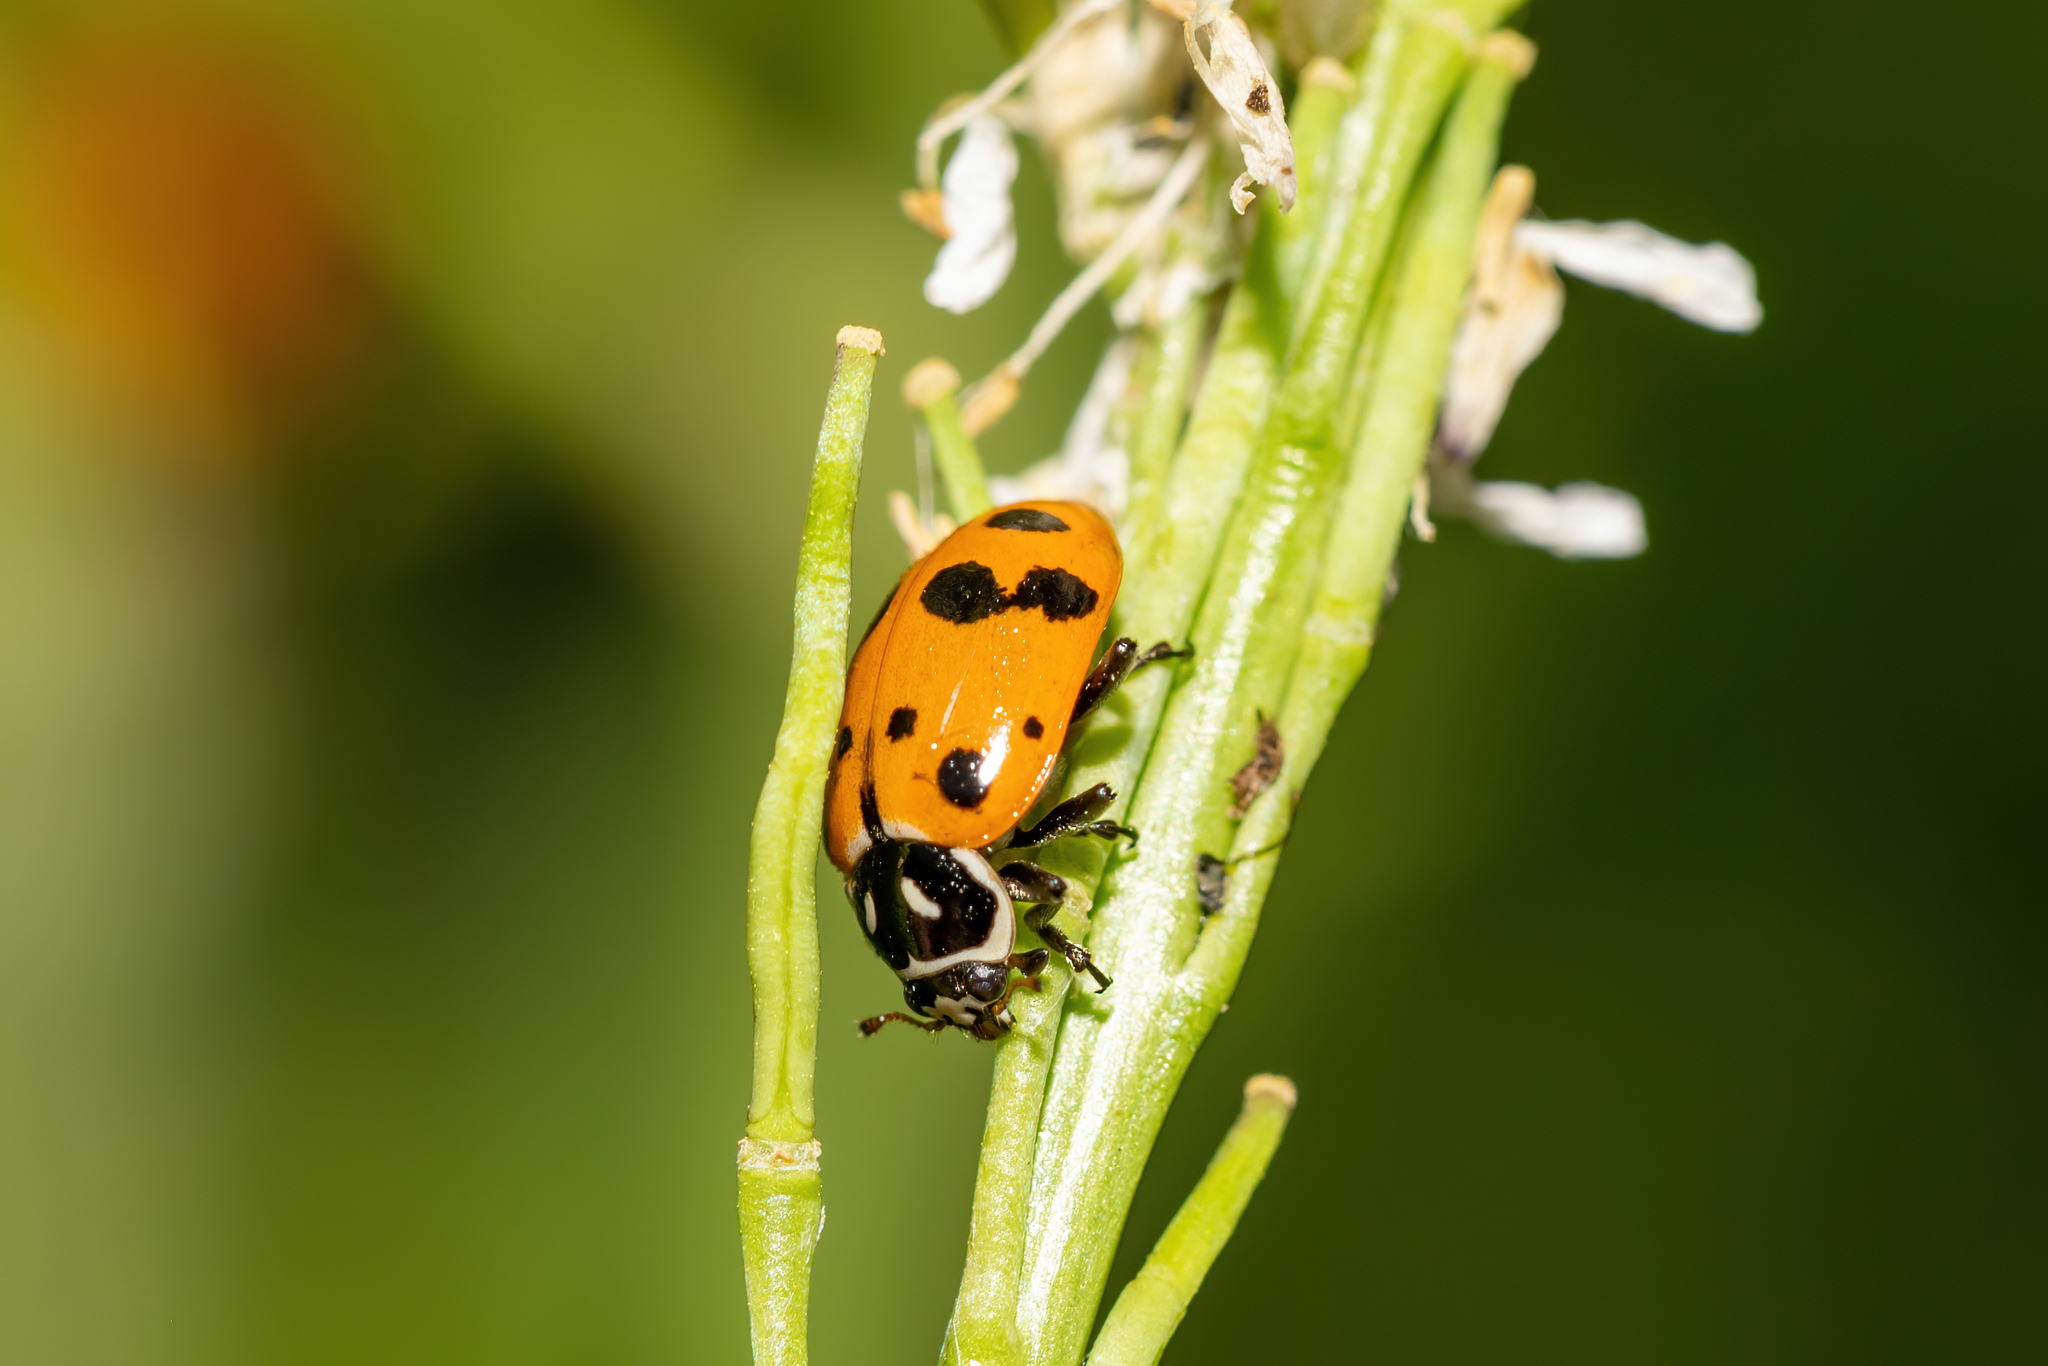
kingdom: Animalia
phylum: Arthropoda
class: Insecta
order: Coleoptera
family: Coccinellidae
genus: Hippodamia
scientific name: Hippodamia convergens
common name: Convergent lady beetle
